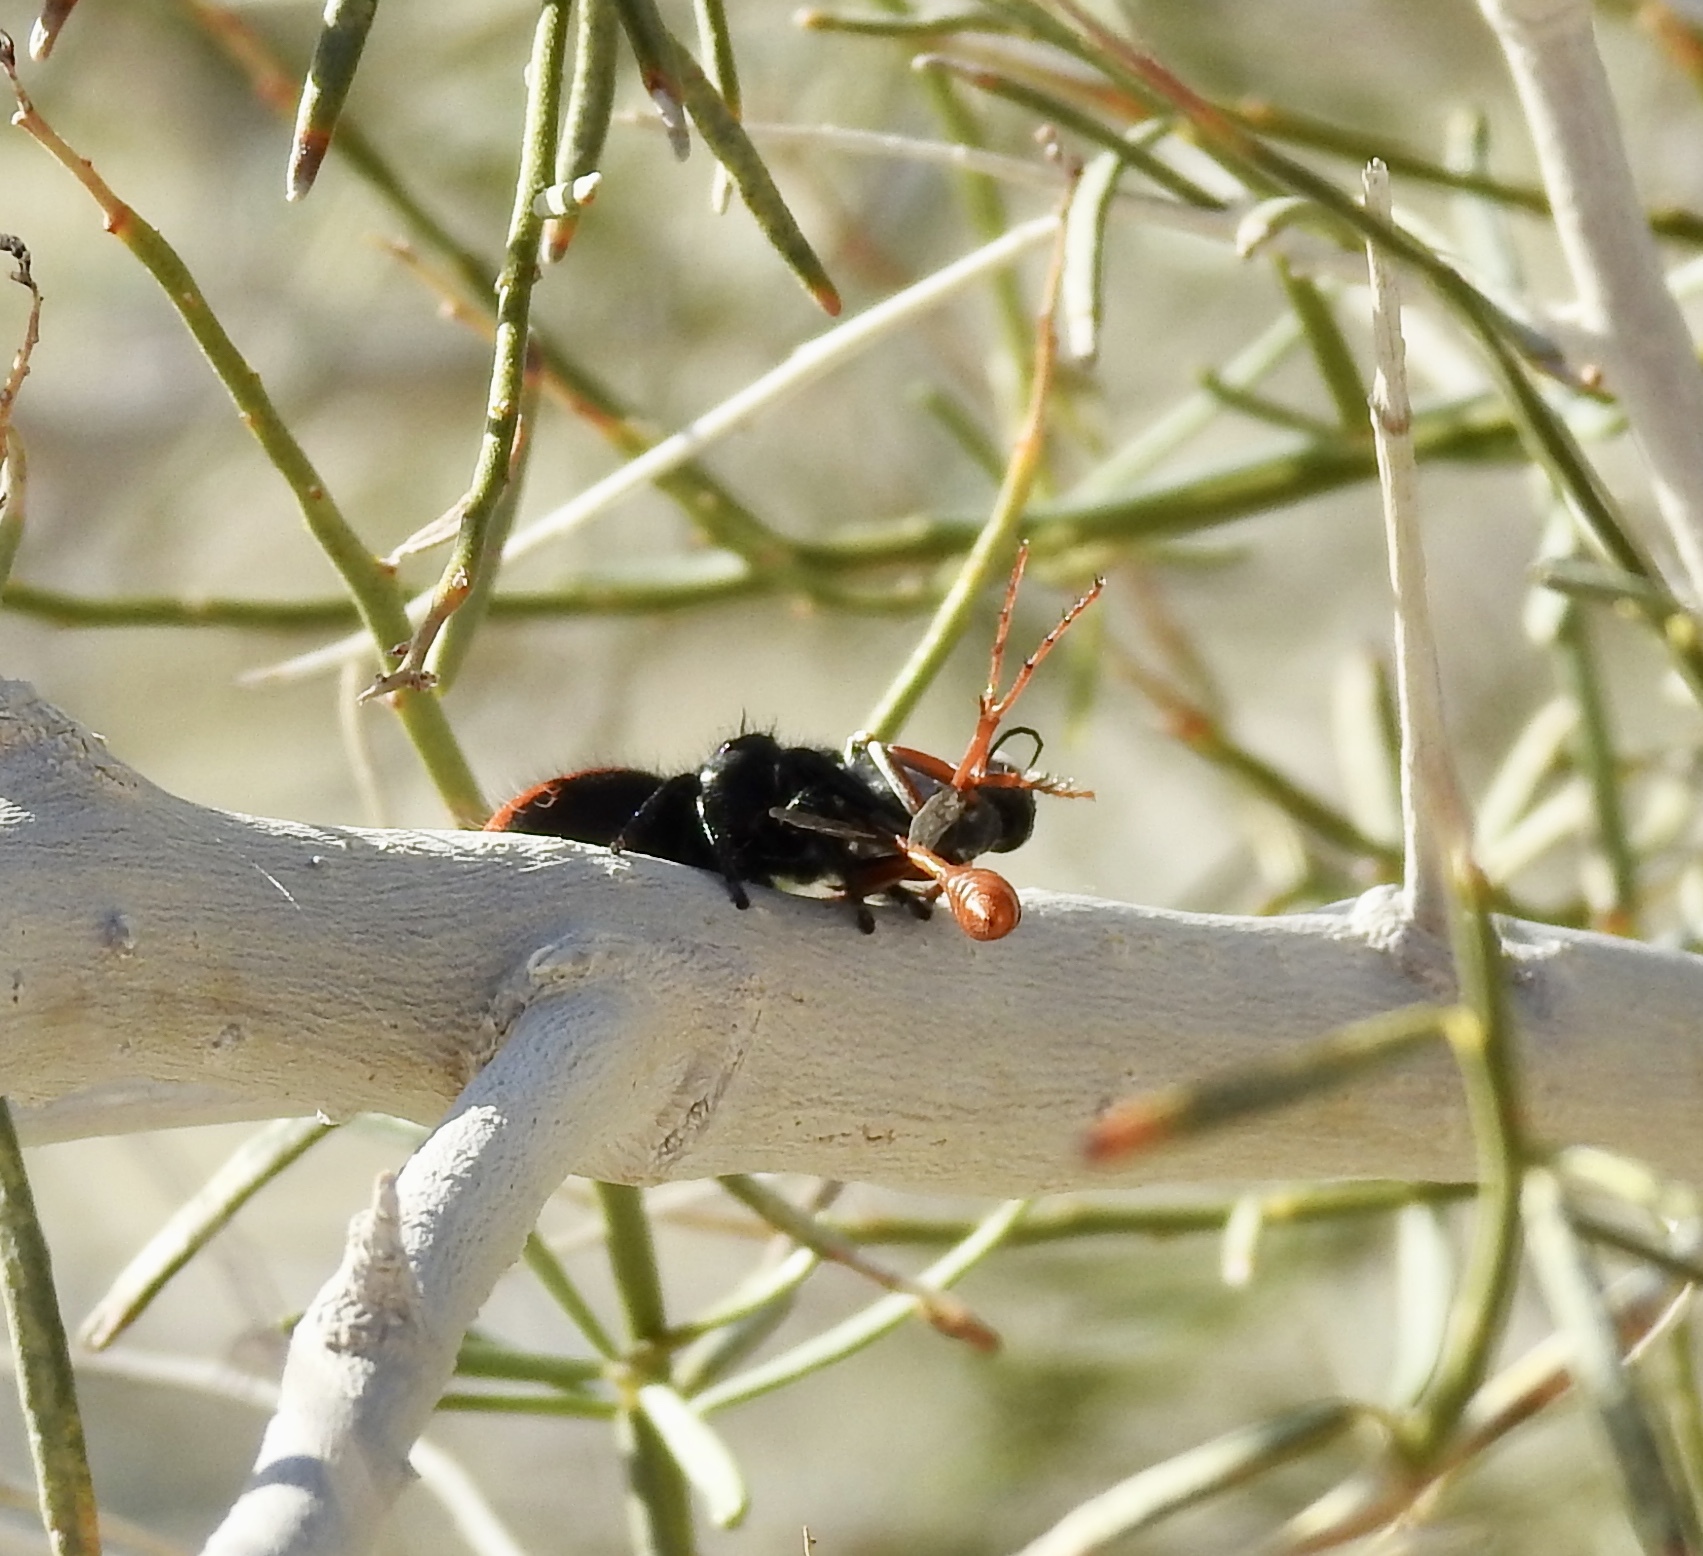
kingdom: Animalia
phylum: Arthropoda
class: Arachnida
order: Araneae
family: Salticidae
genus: Phidippus
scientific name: Phidippus johnsoni
